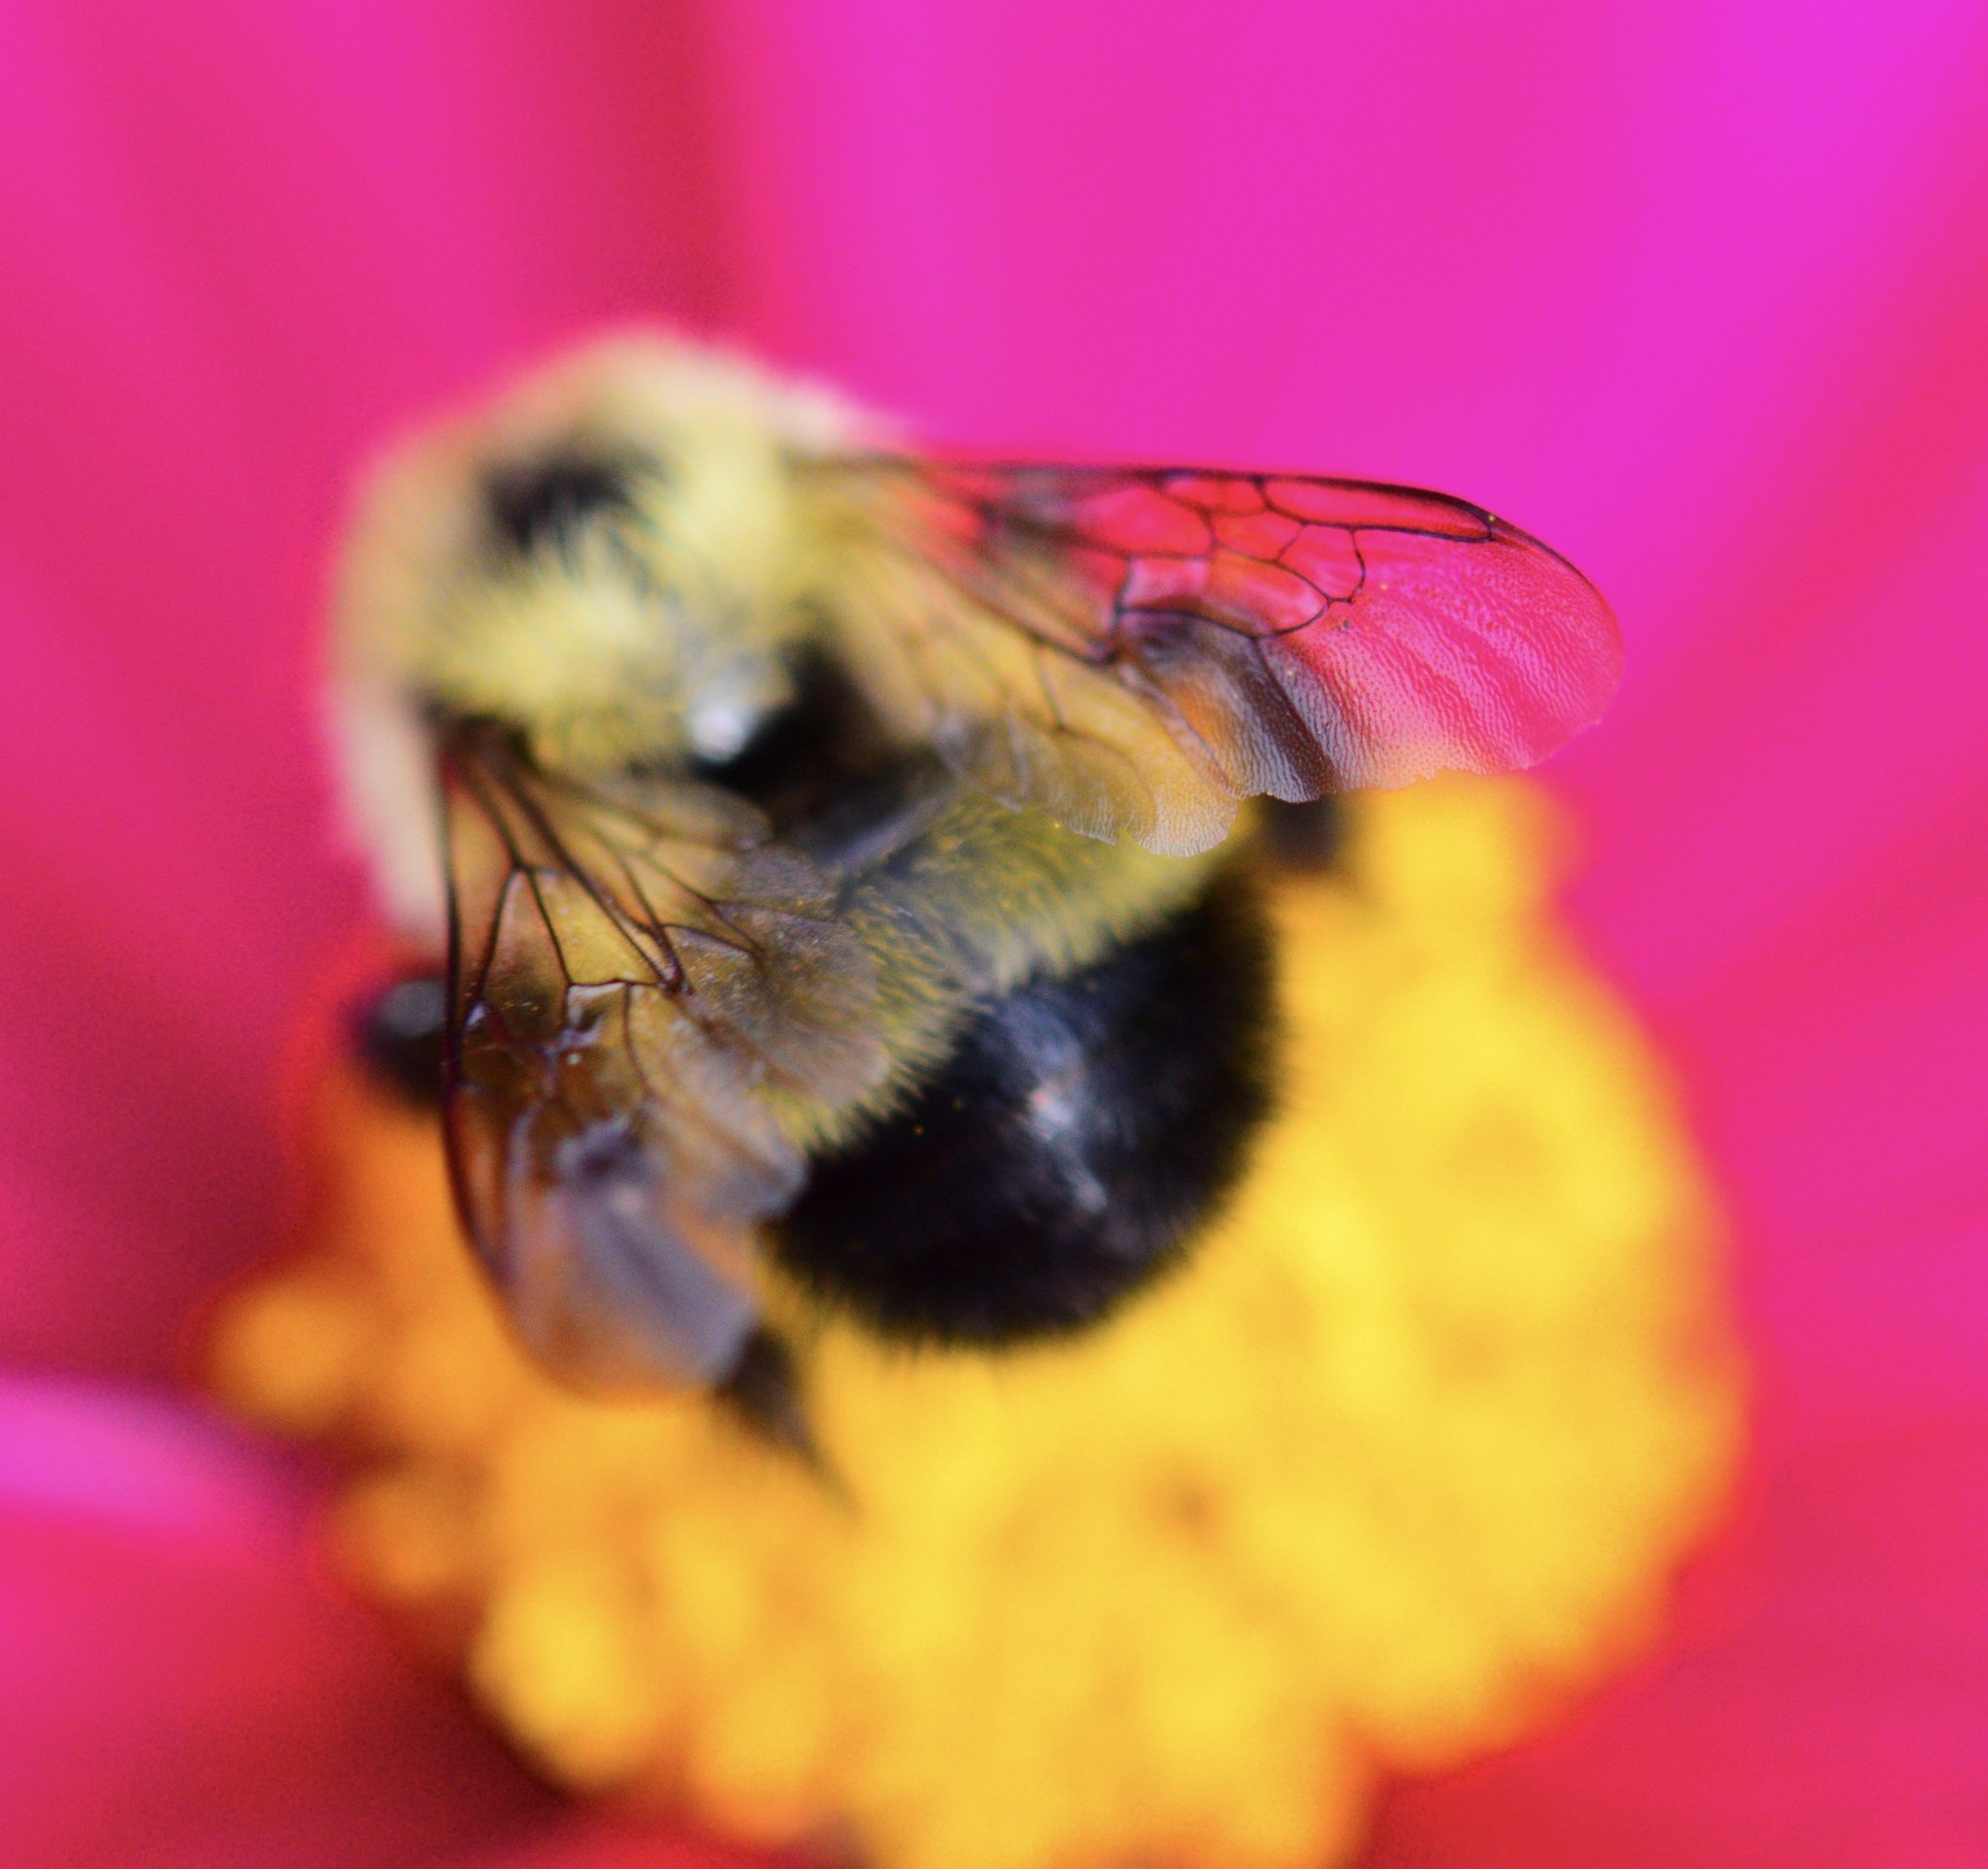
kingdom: Animalia
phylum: Arthropoda
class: Insecta
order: Hymenoptera
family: Apidae
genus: Pyrobombus
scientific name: Pyrobombus
